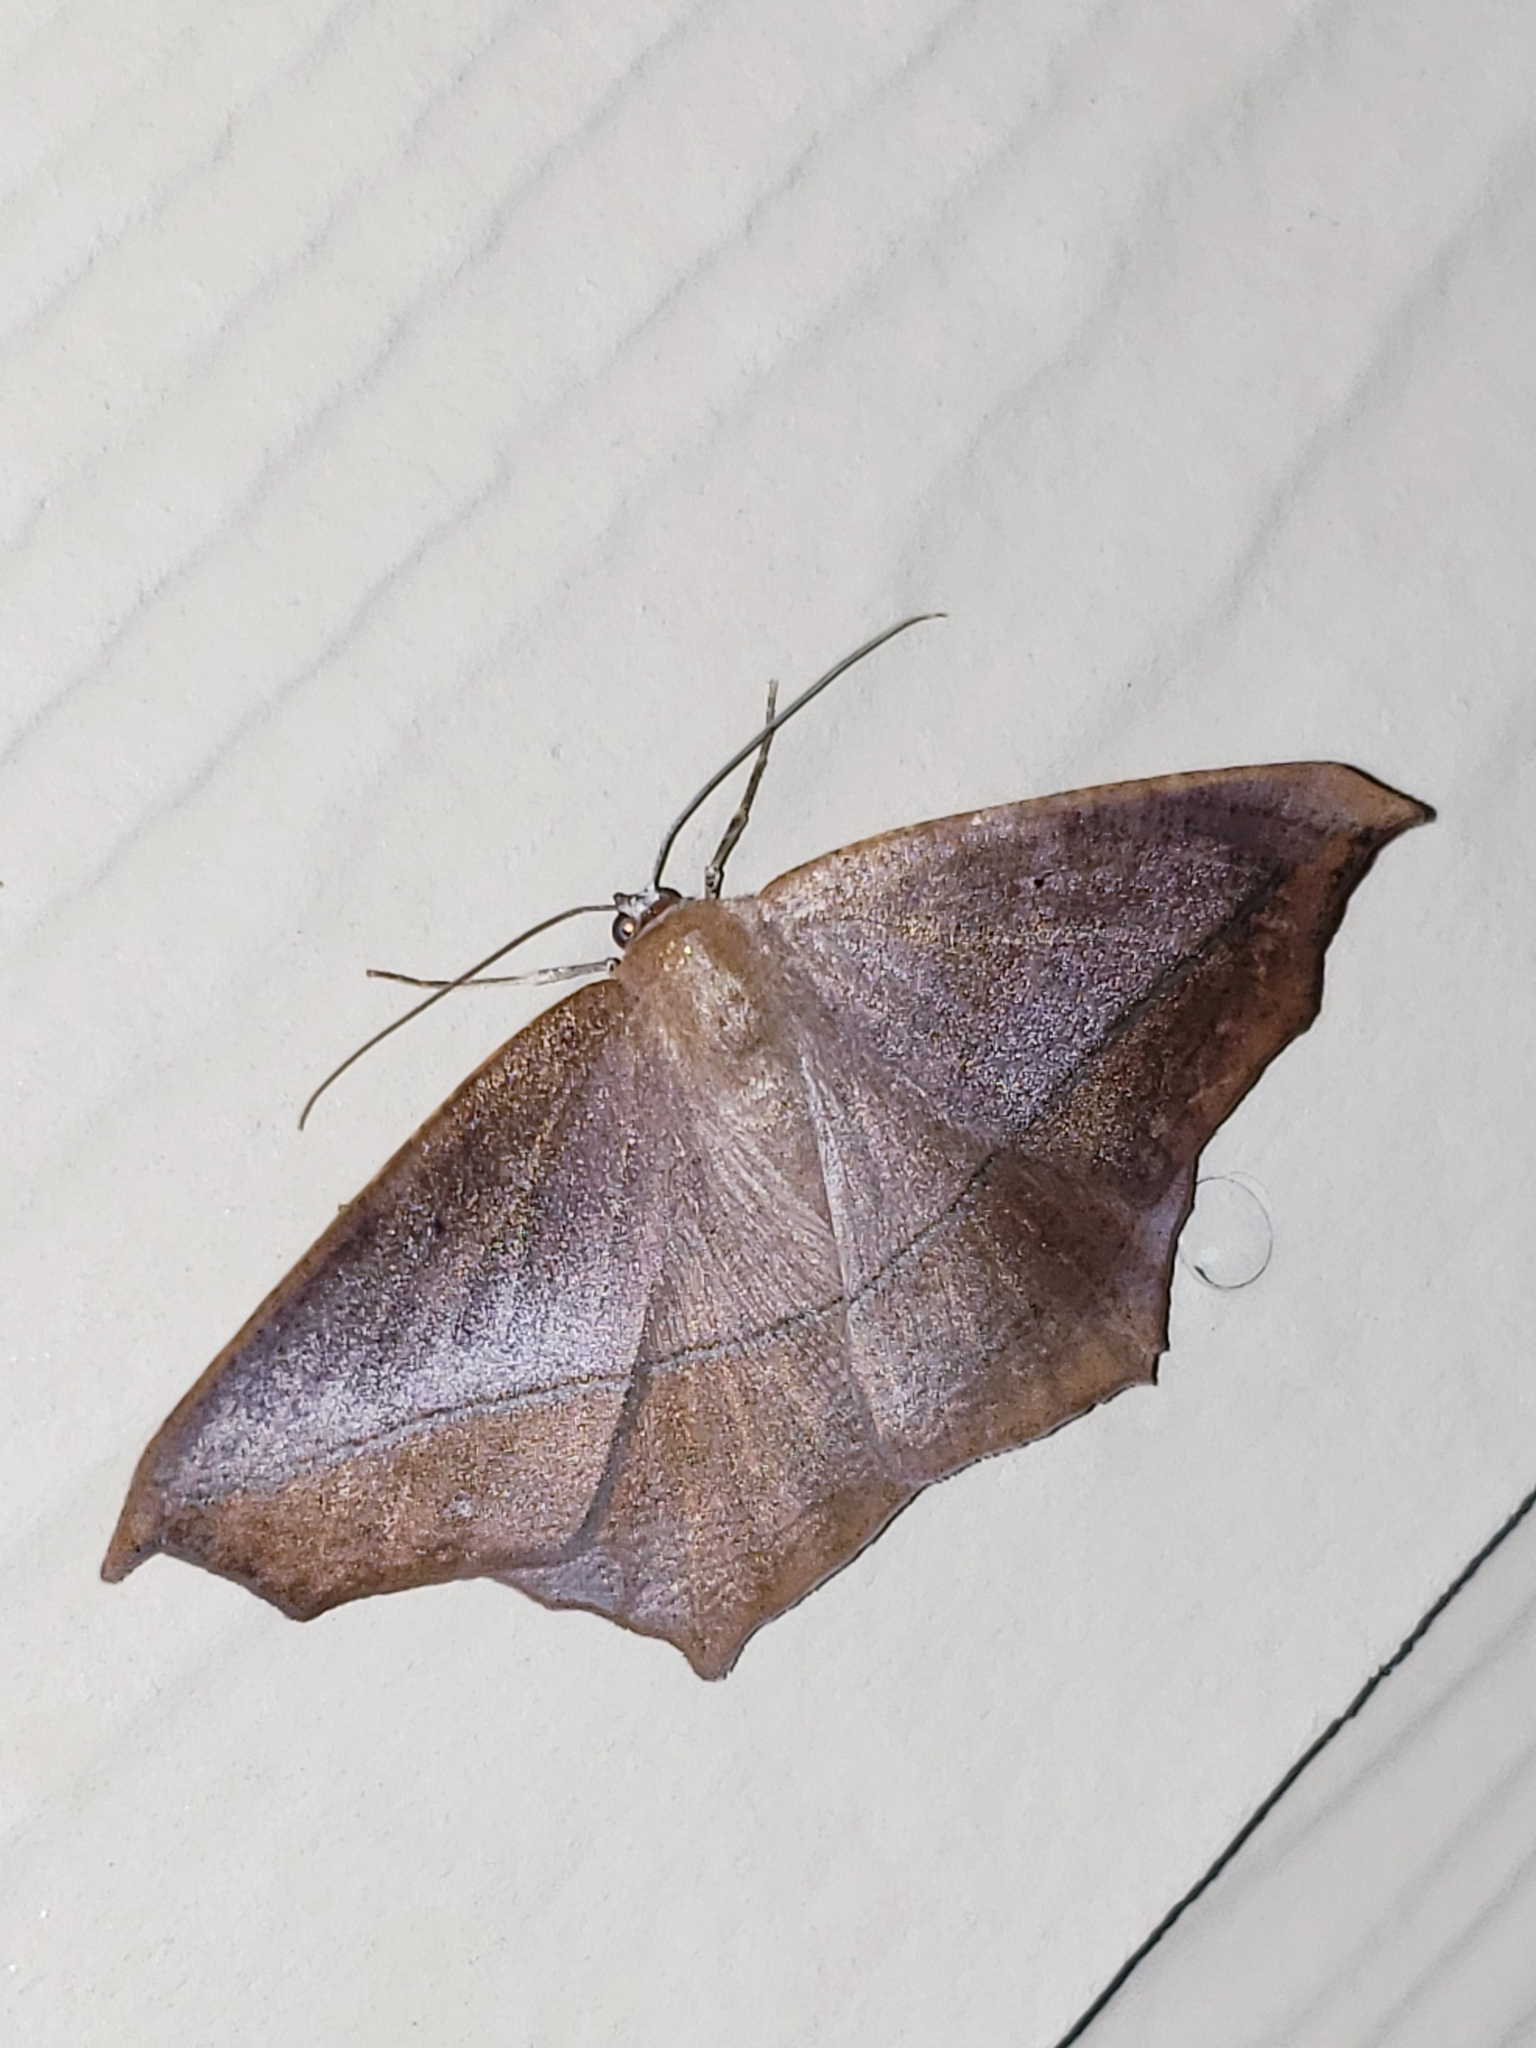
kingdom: Animalia
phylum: Arthropoda
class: Insecta
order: Lepidoptera
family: Geometridae
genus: Prochoerodes
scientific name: Prochoerodes lineola
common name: Large maple spanworm
